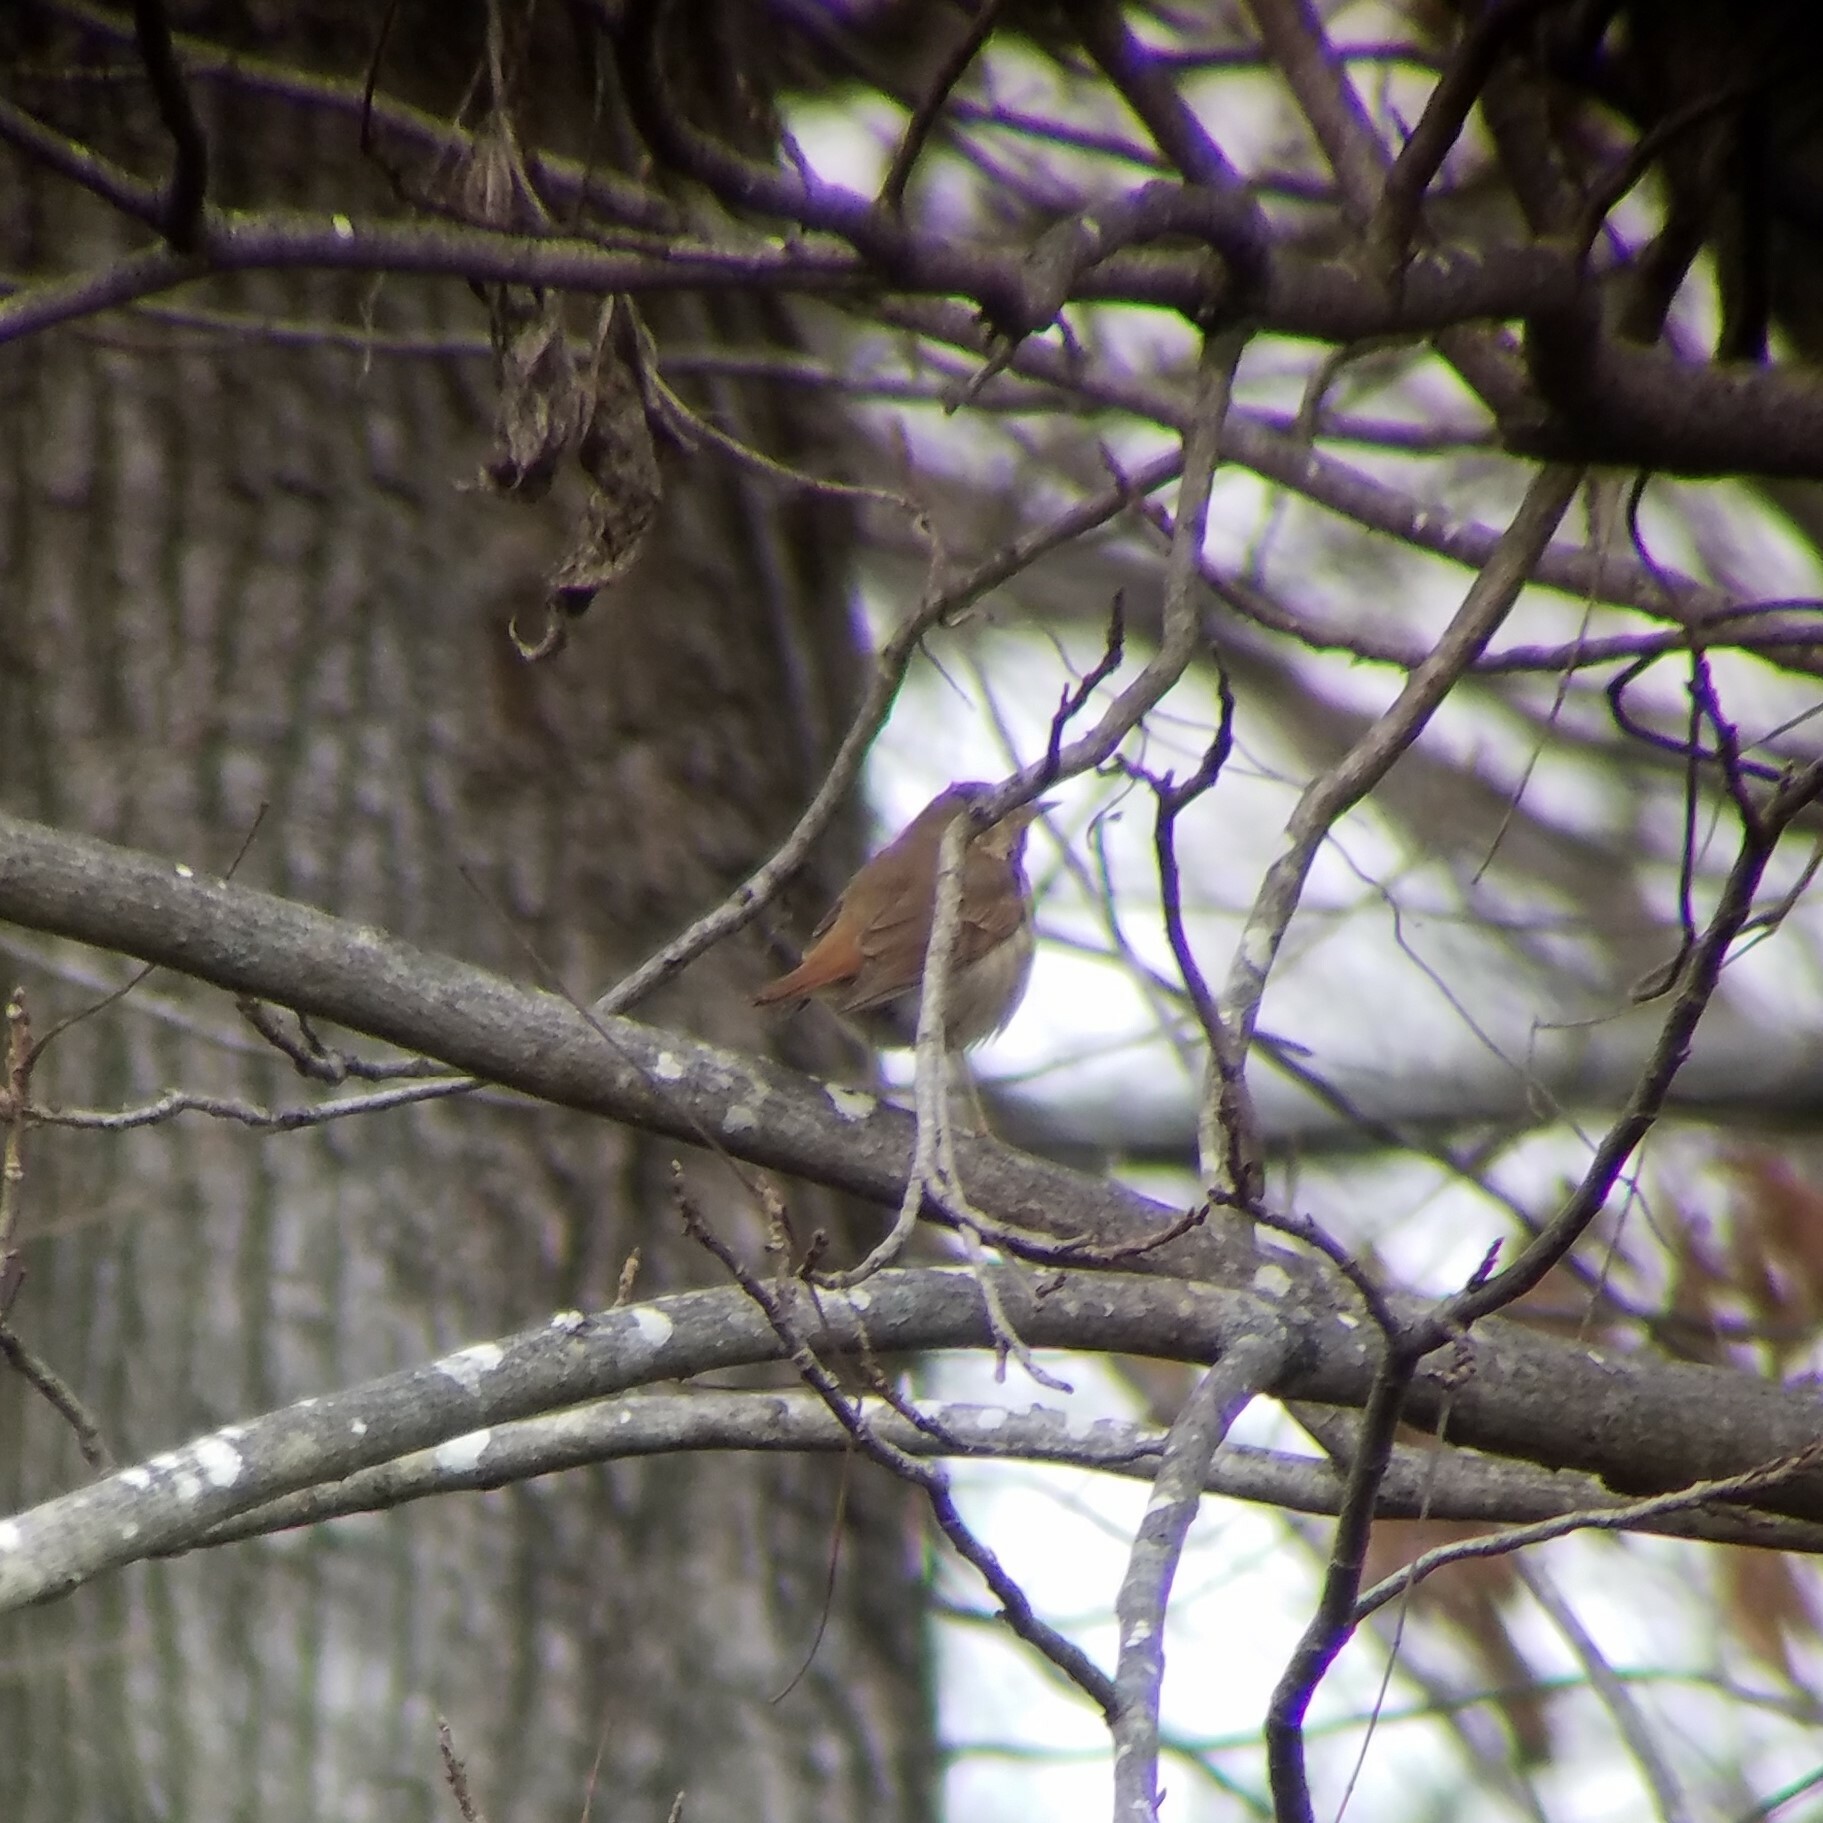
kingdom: Animalia
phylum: Chordata
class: Aves
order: Passeriformes
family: Turdidae
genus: Catharus
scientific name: Catharus guttatus
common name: Hermit thrush
